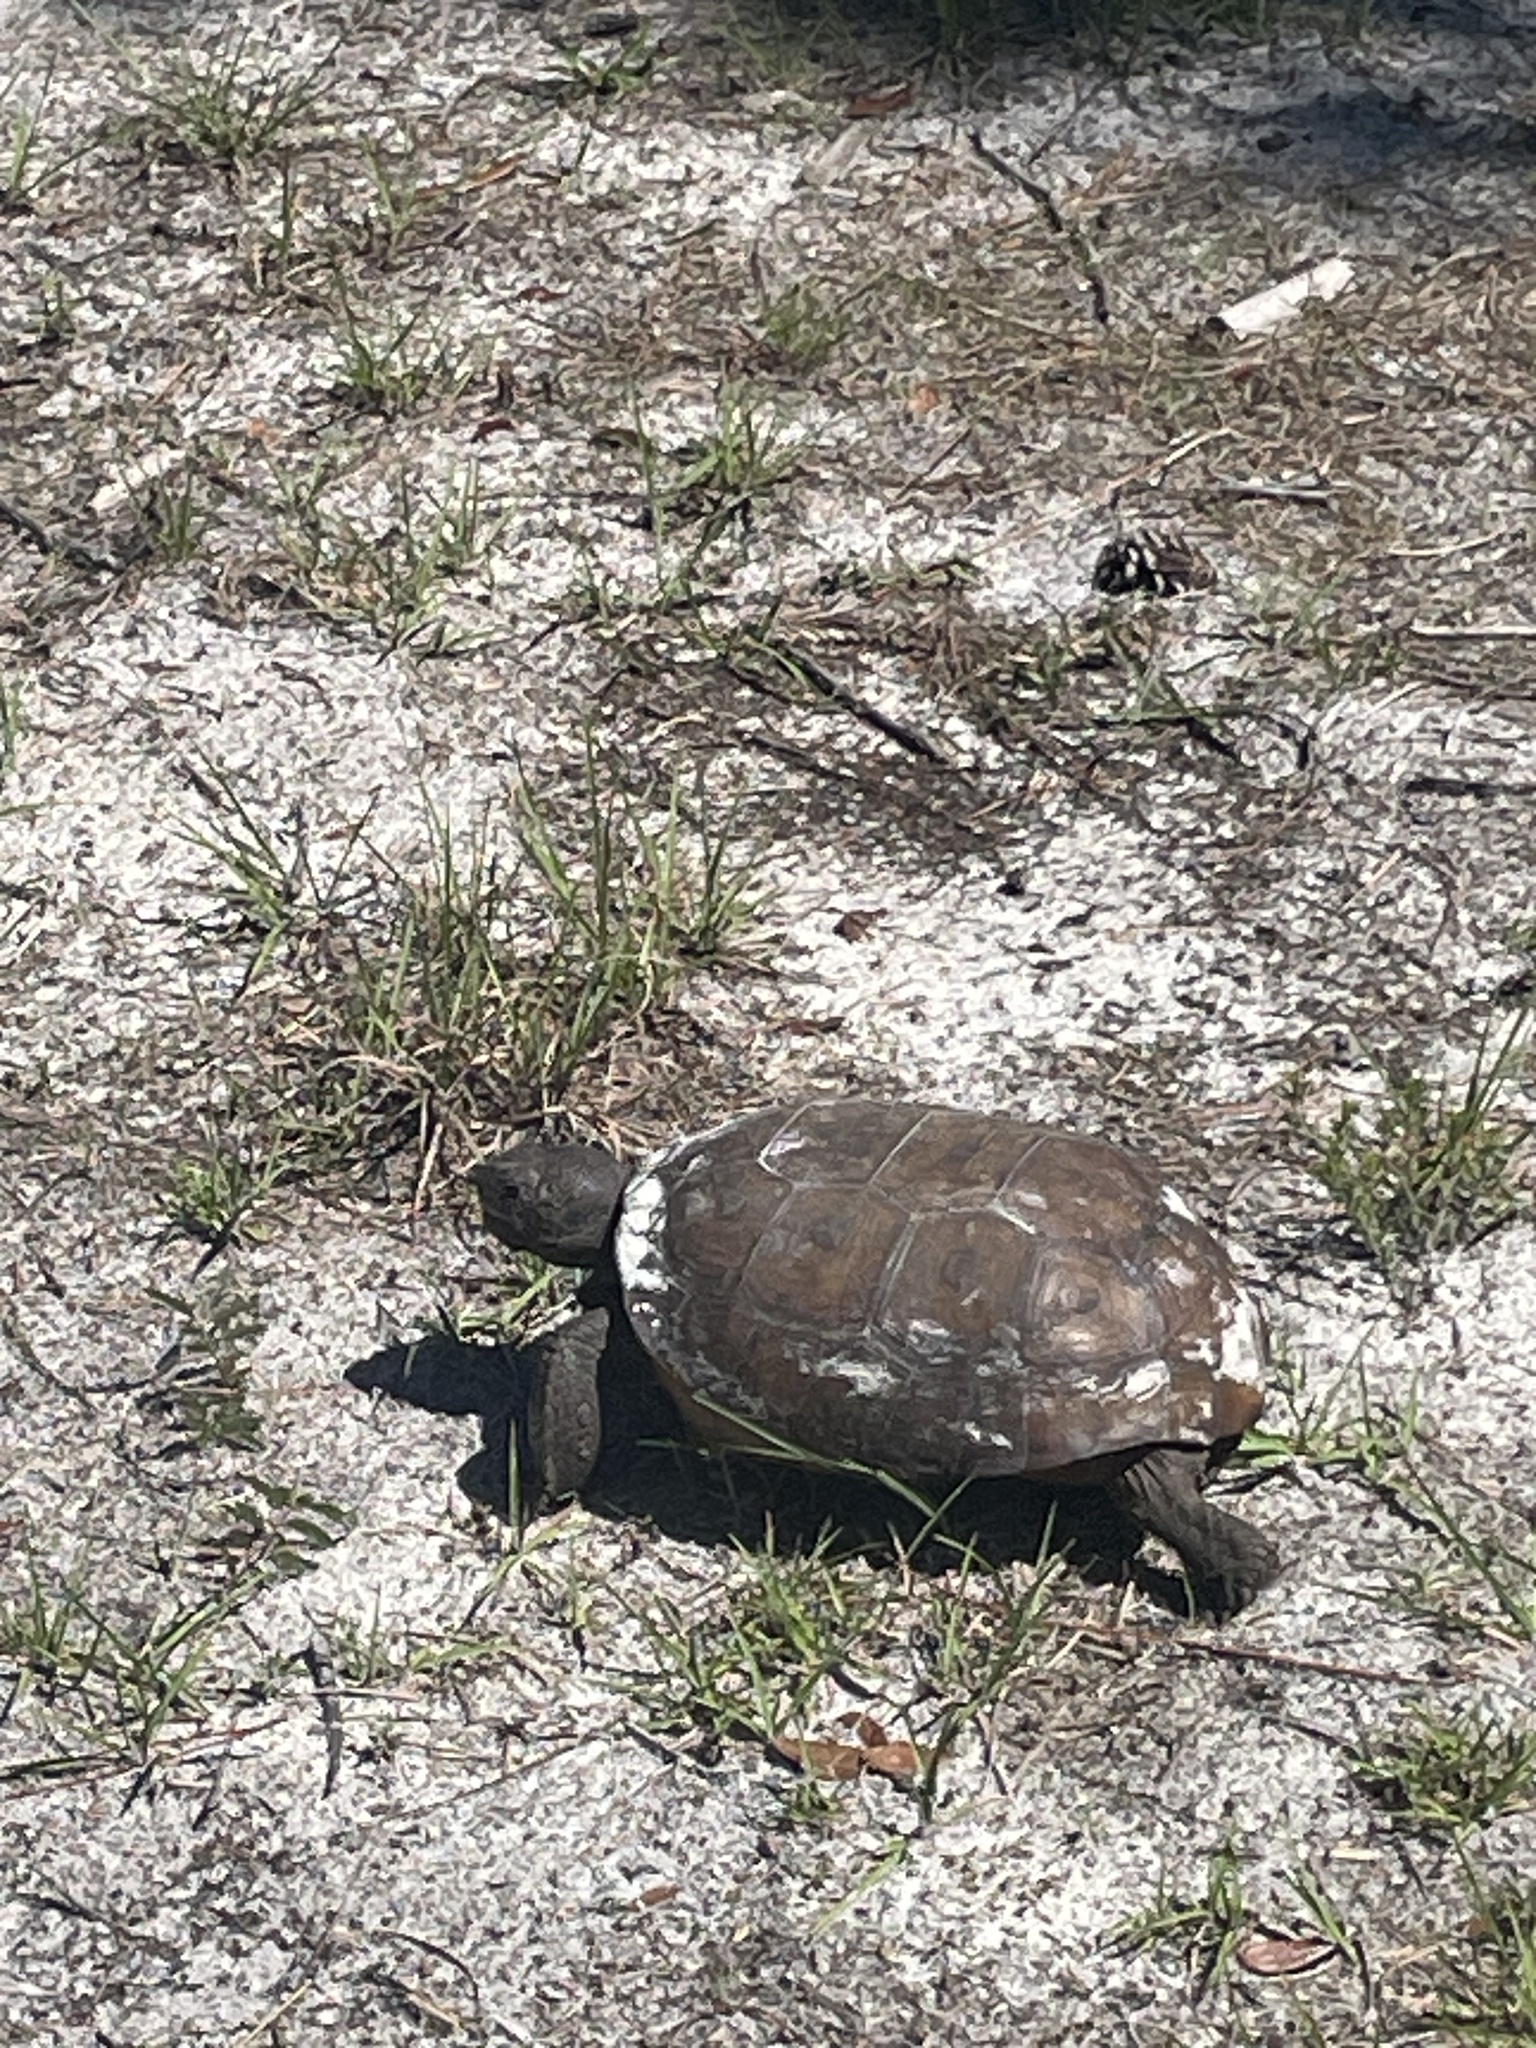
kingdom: Animalia
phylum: Chordata
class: Testudines
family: Testudinidae
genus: Gopherus
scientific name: Gopherus polyphemus
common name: Florida gopher tortoise
